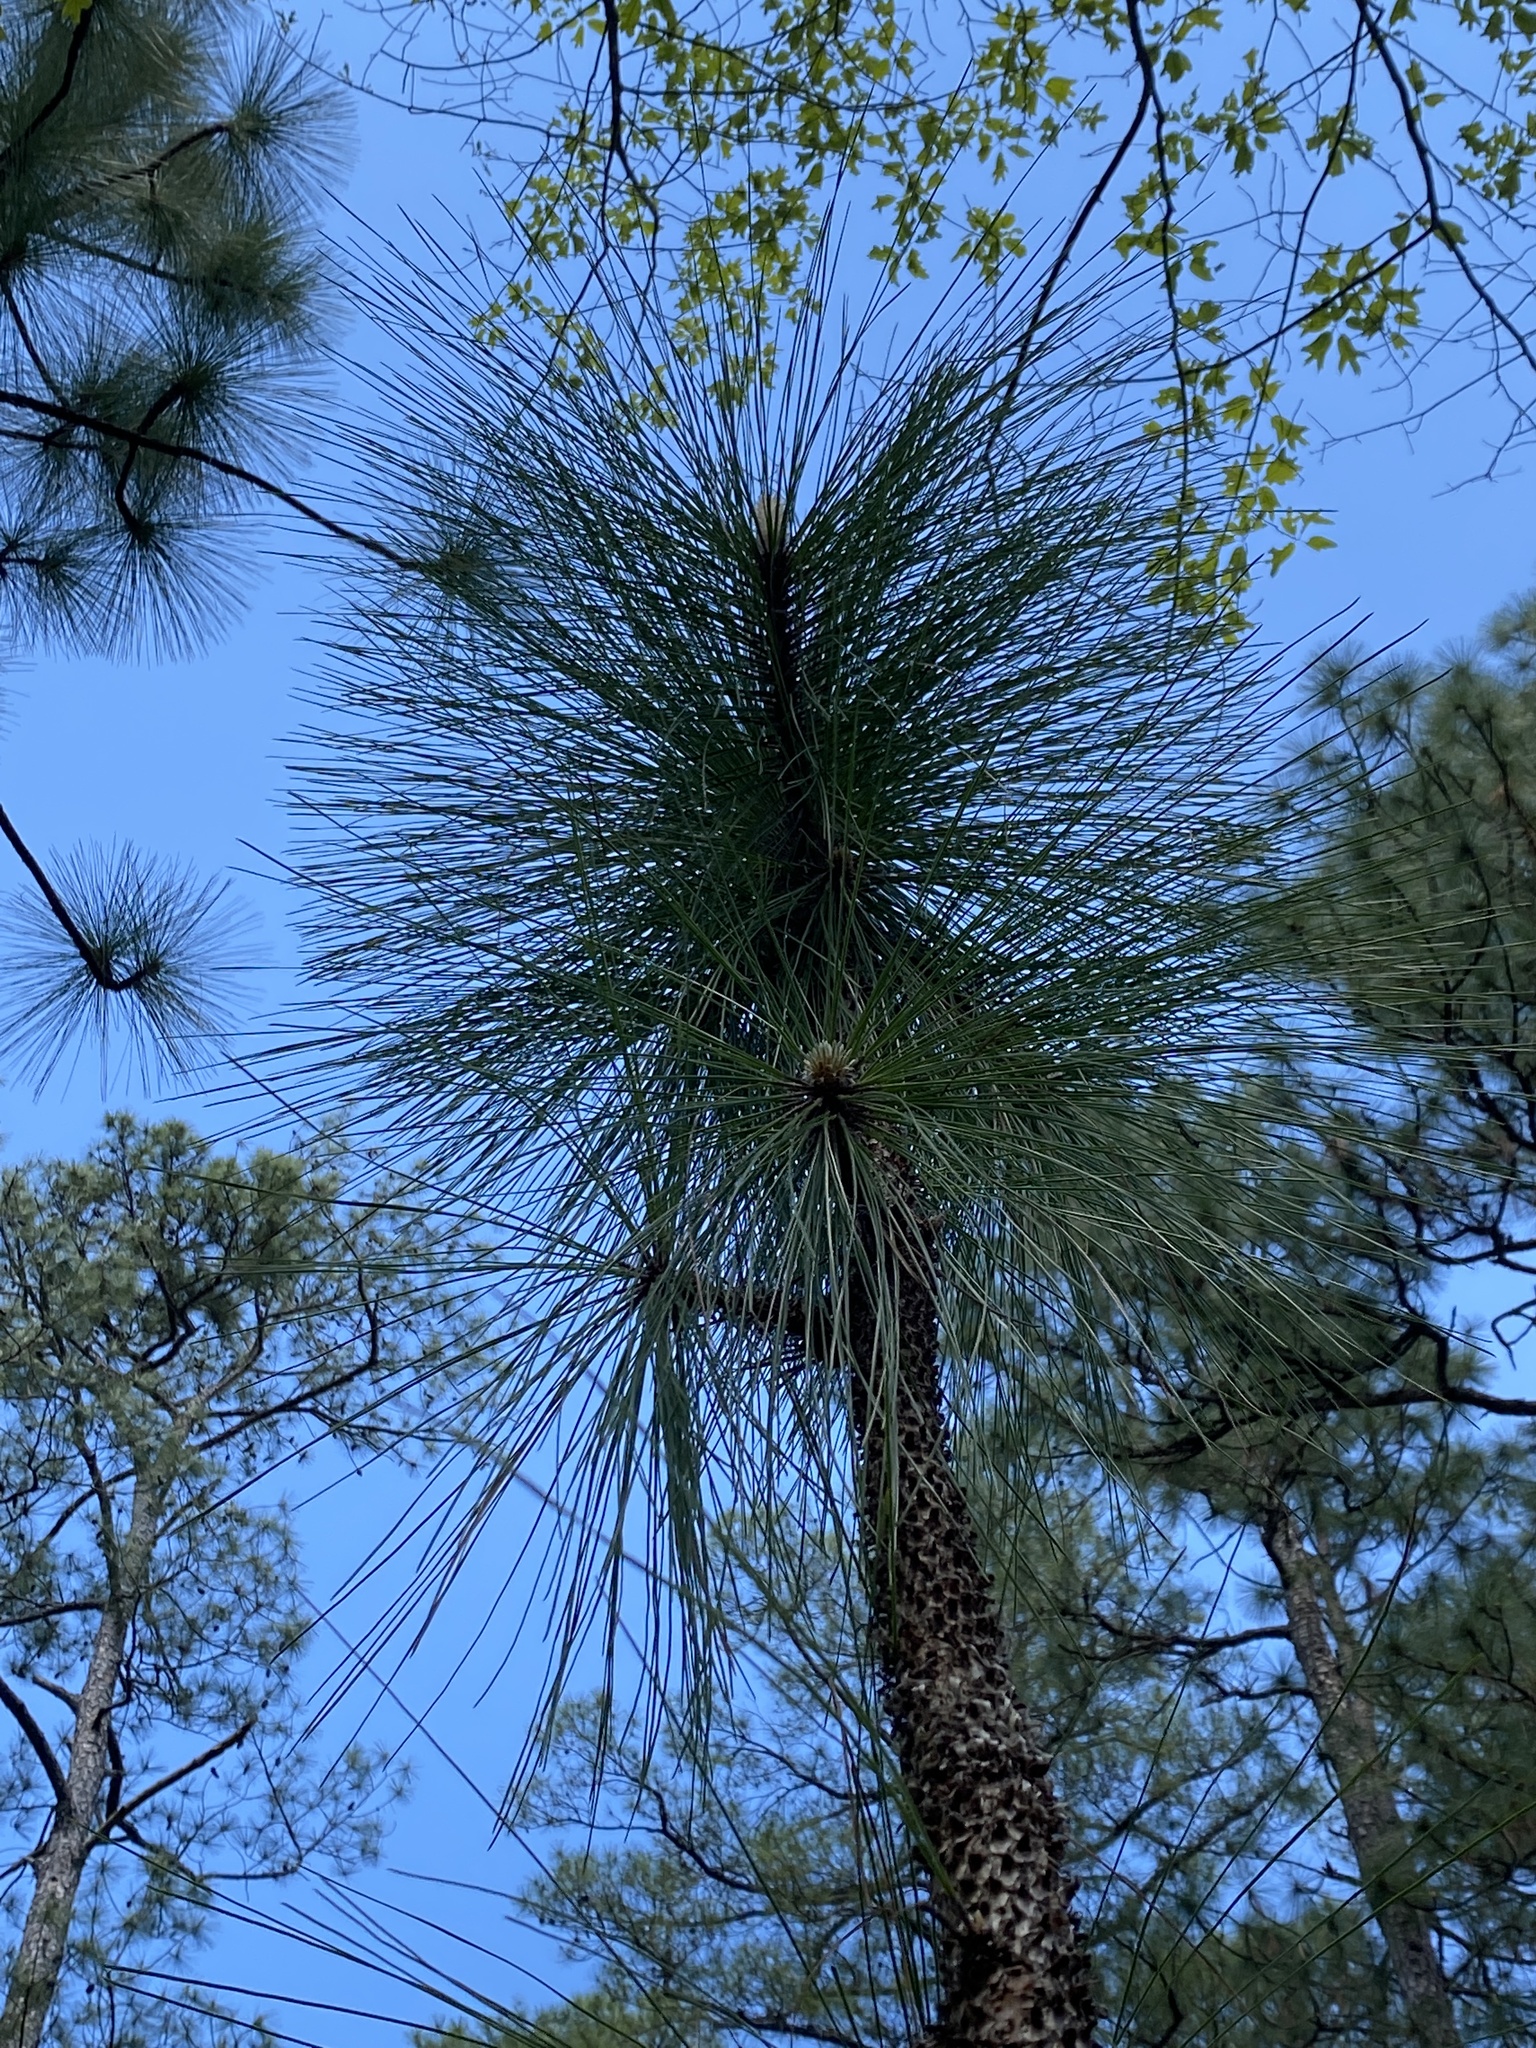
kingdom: Plantae
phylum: Tracheophyta
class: Pinopsida
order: Pinales
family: Pinaceae
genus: Pinus
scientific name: Pinus palustris
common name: Longleaf pine
